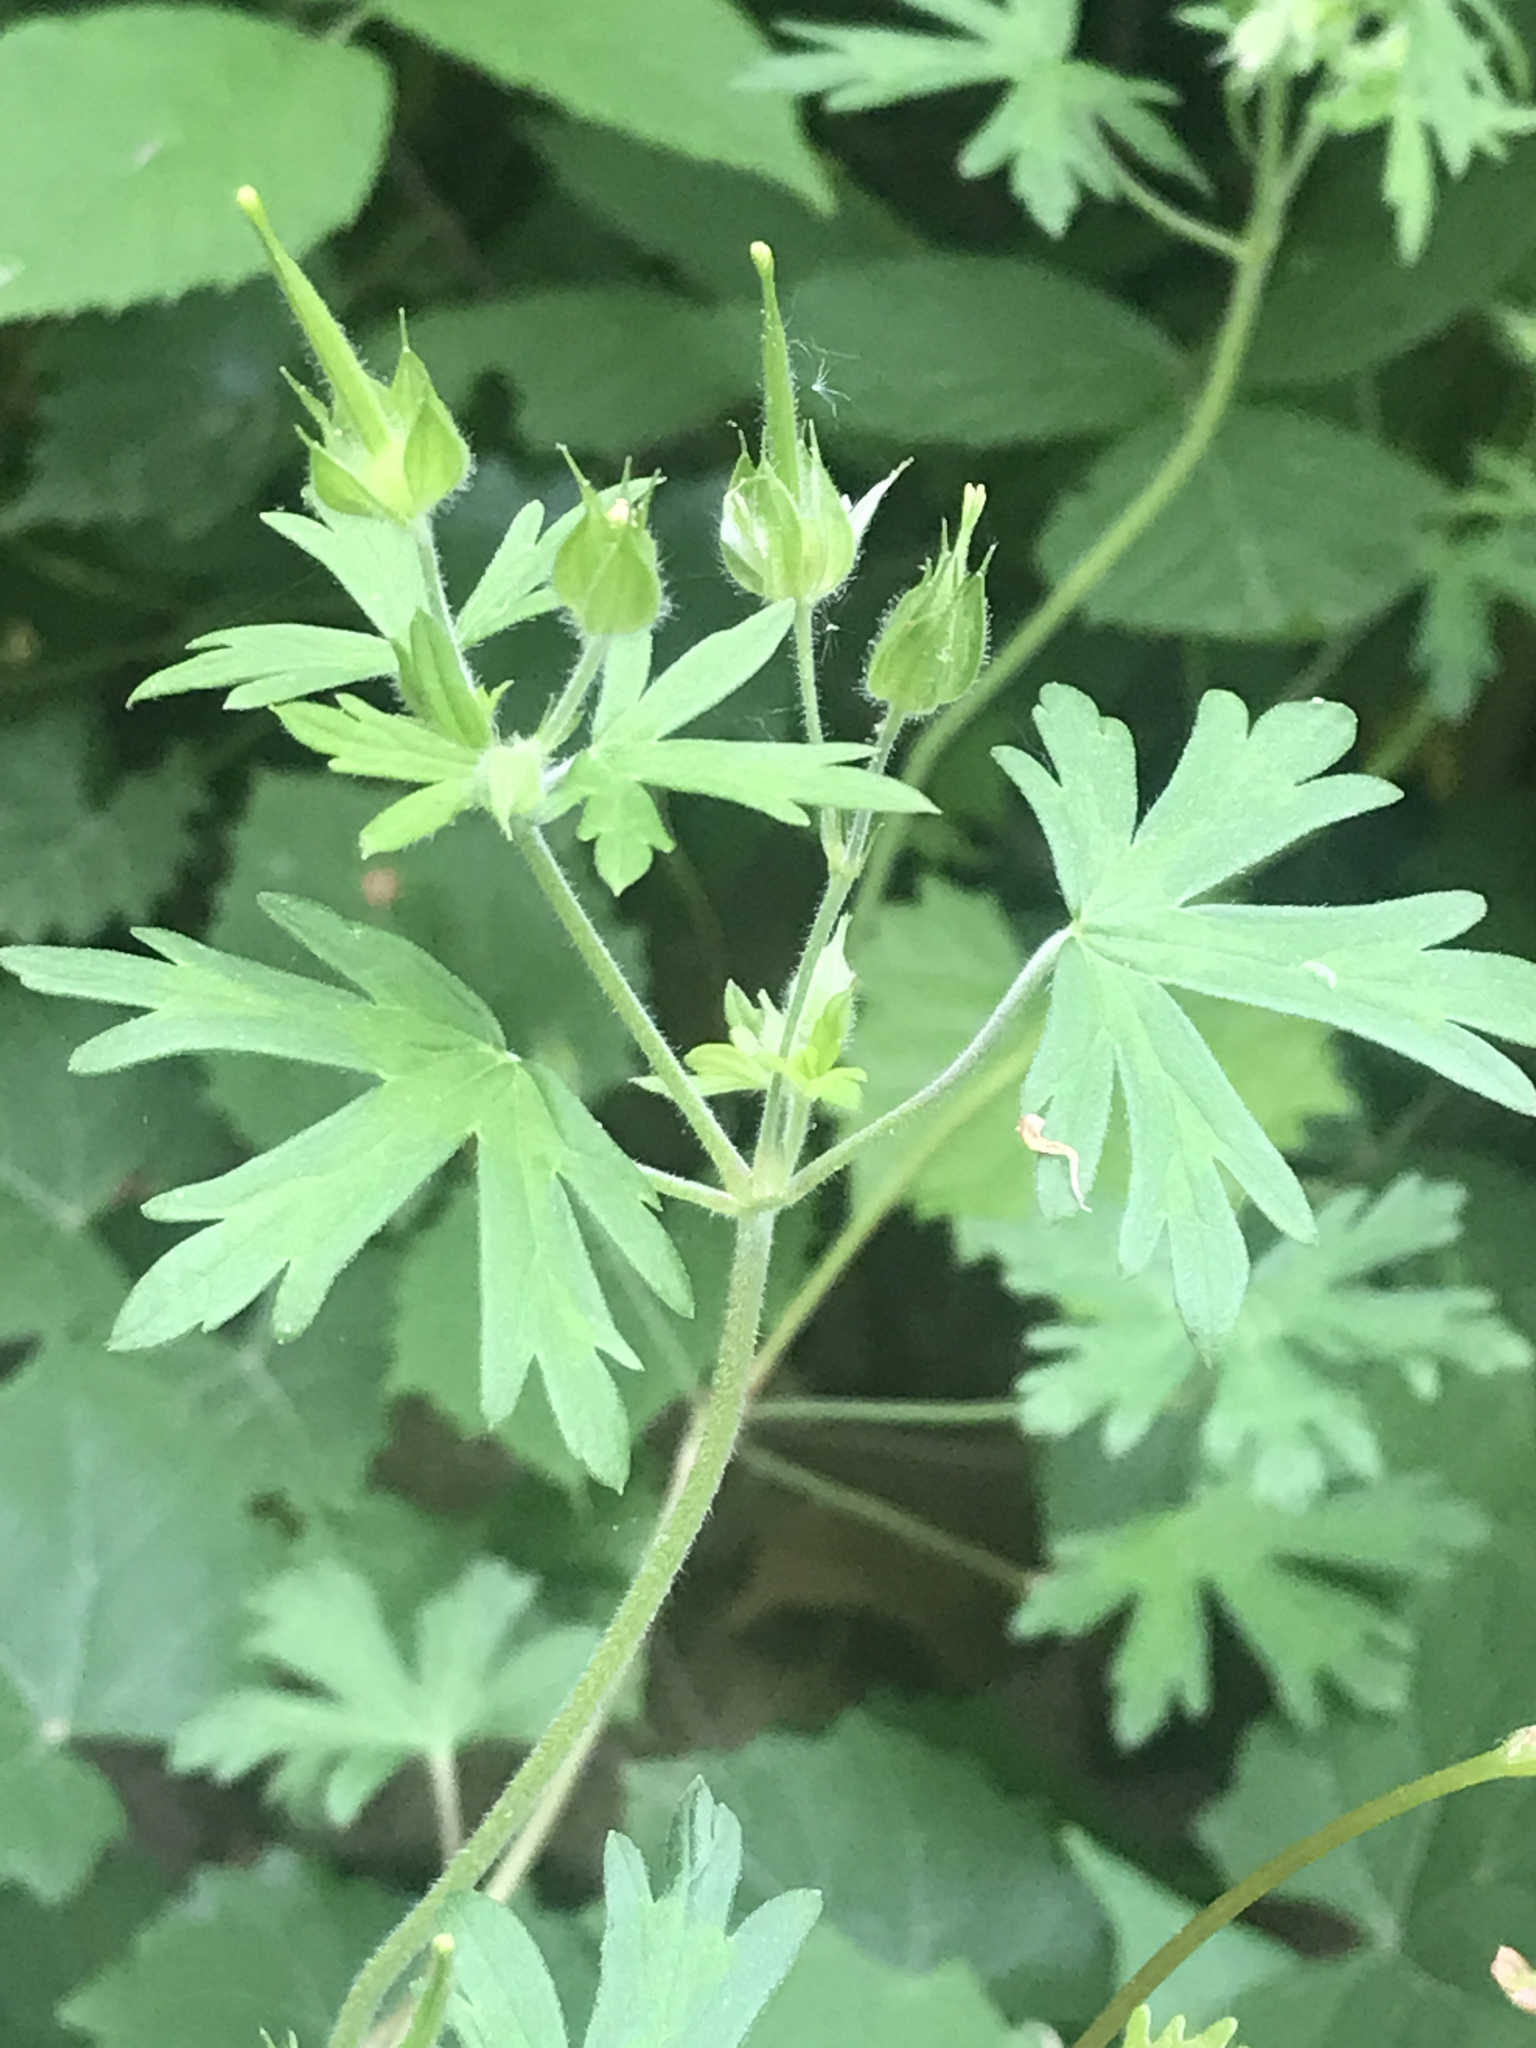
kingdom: Plantae
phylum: Tracheophyta
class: Magnoliopsida
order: Geraniales
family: Geraniaceae
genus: Geranium
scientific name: Geranium carolinianum
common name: Carolina crane's-bill
